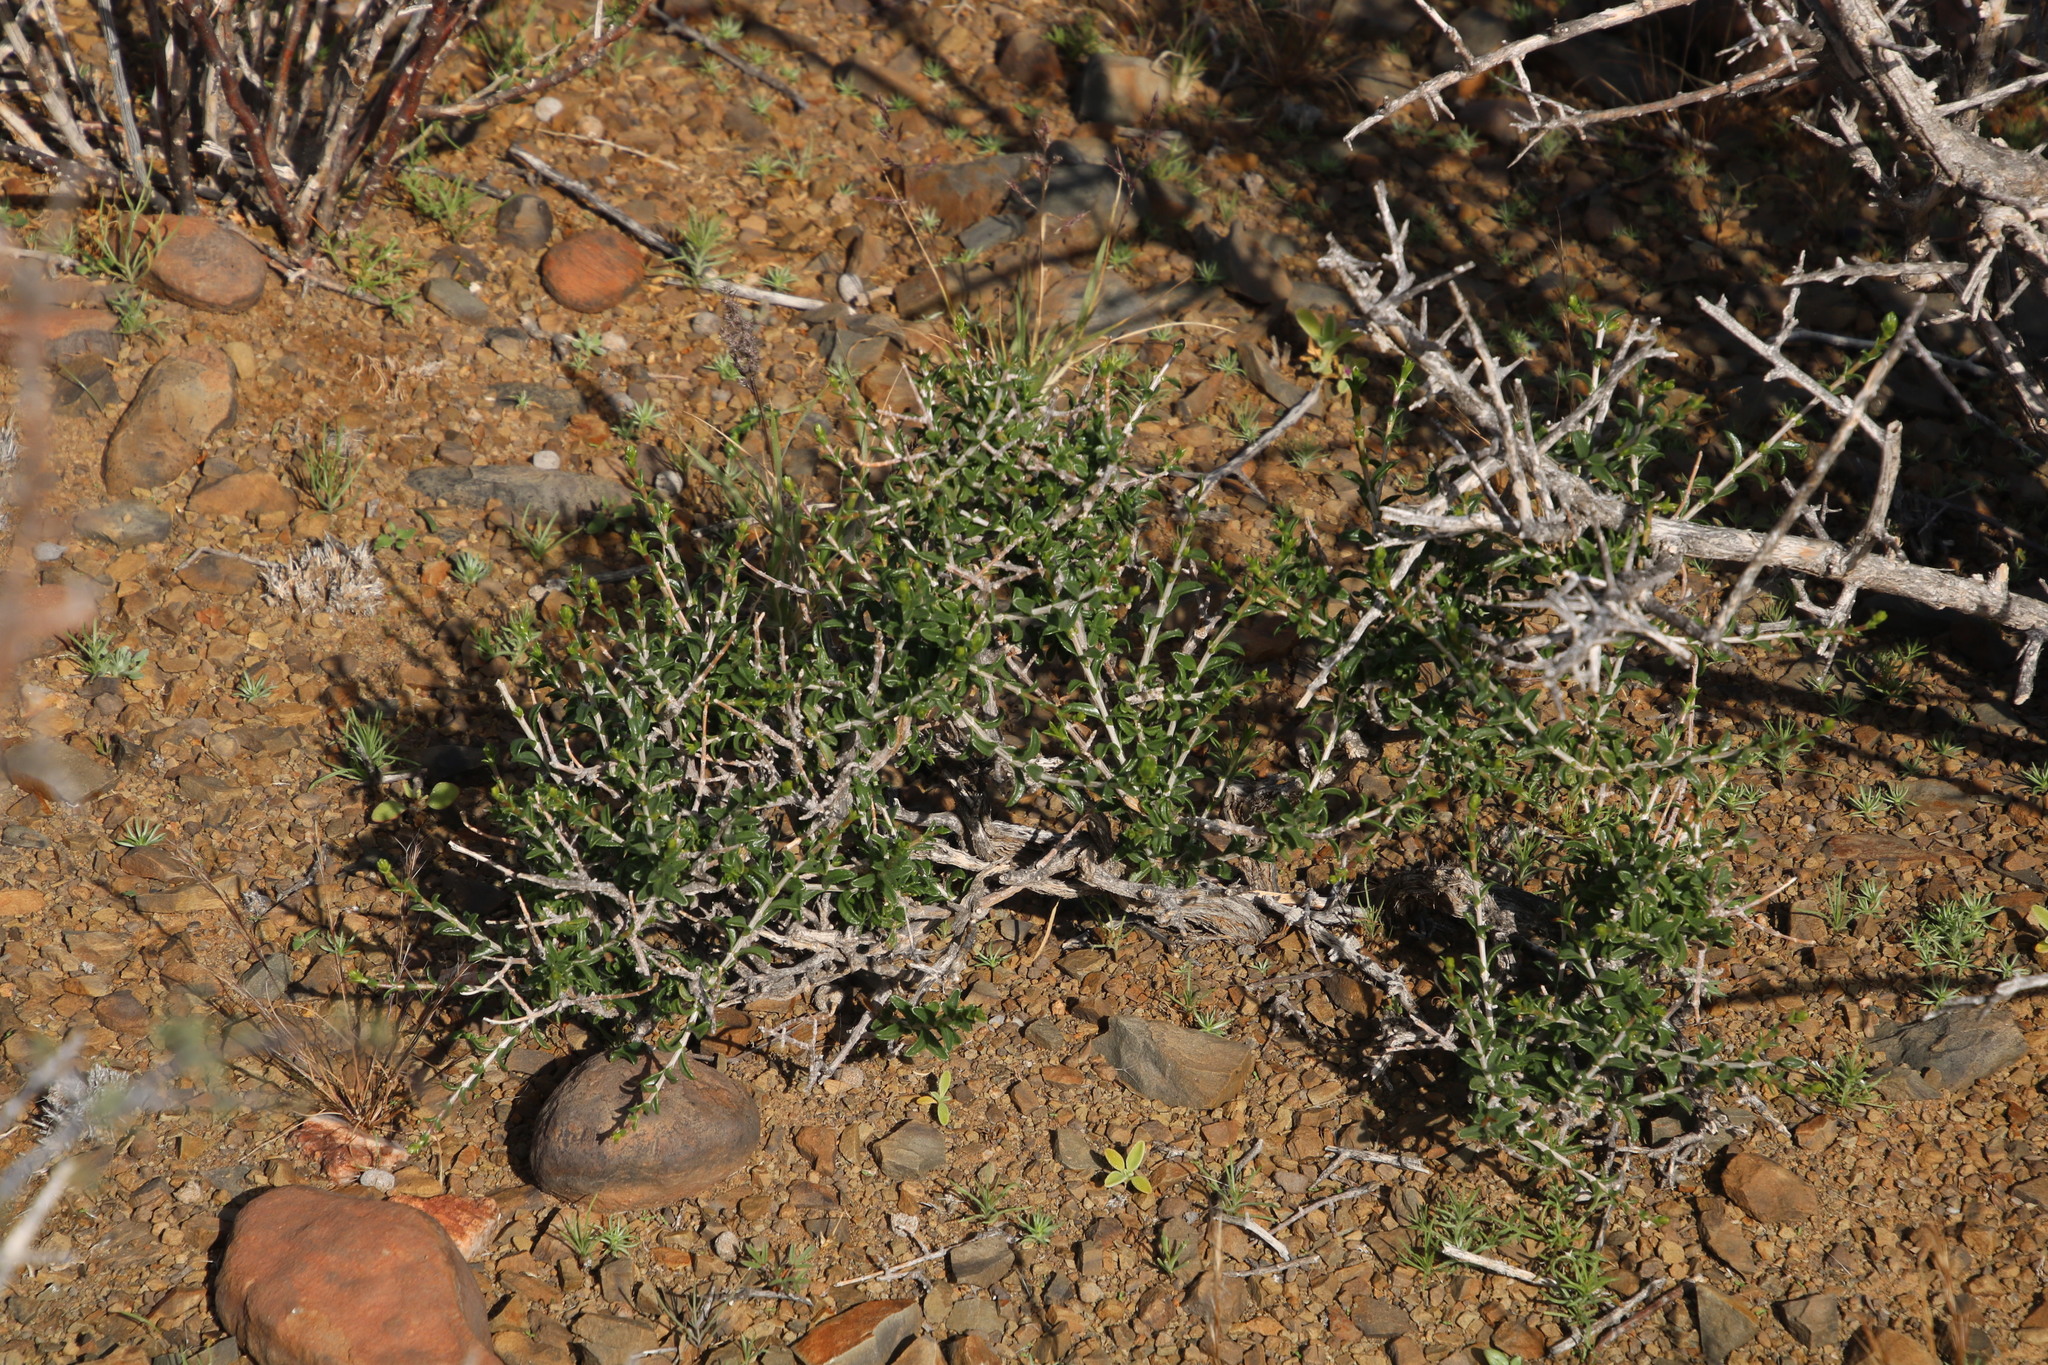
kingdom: Plantae
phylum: Tracheophyta
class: Magnoliopsida
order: Asterales
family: Asteraceae
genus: Pteronia
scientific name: Pteronia viscosa
